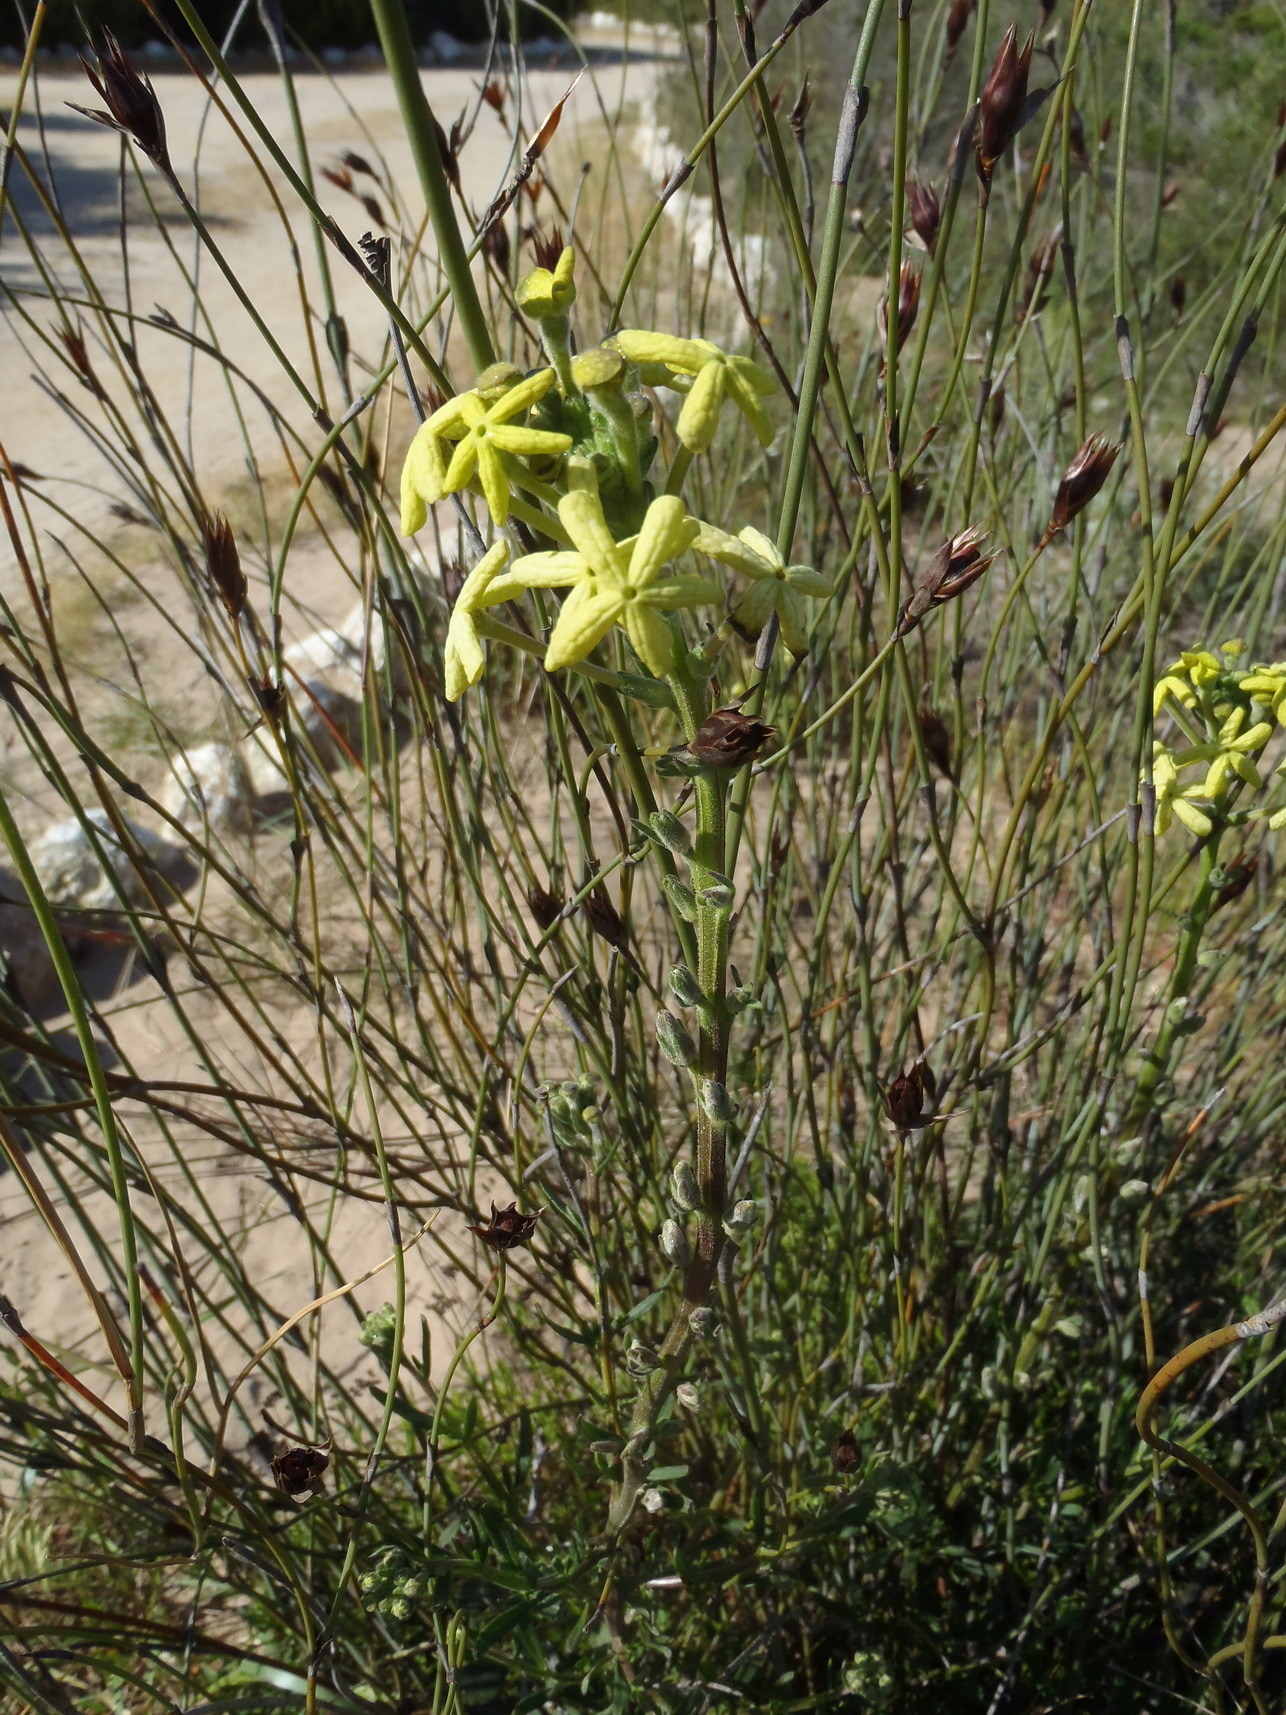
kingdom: Plantae
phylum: Tracheophyta
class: Magnoliopsida
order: Lamiales
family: Scrophulariaceae
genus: Lyperia
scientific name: Lyperia lychnidea
